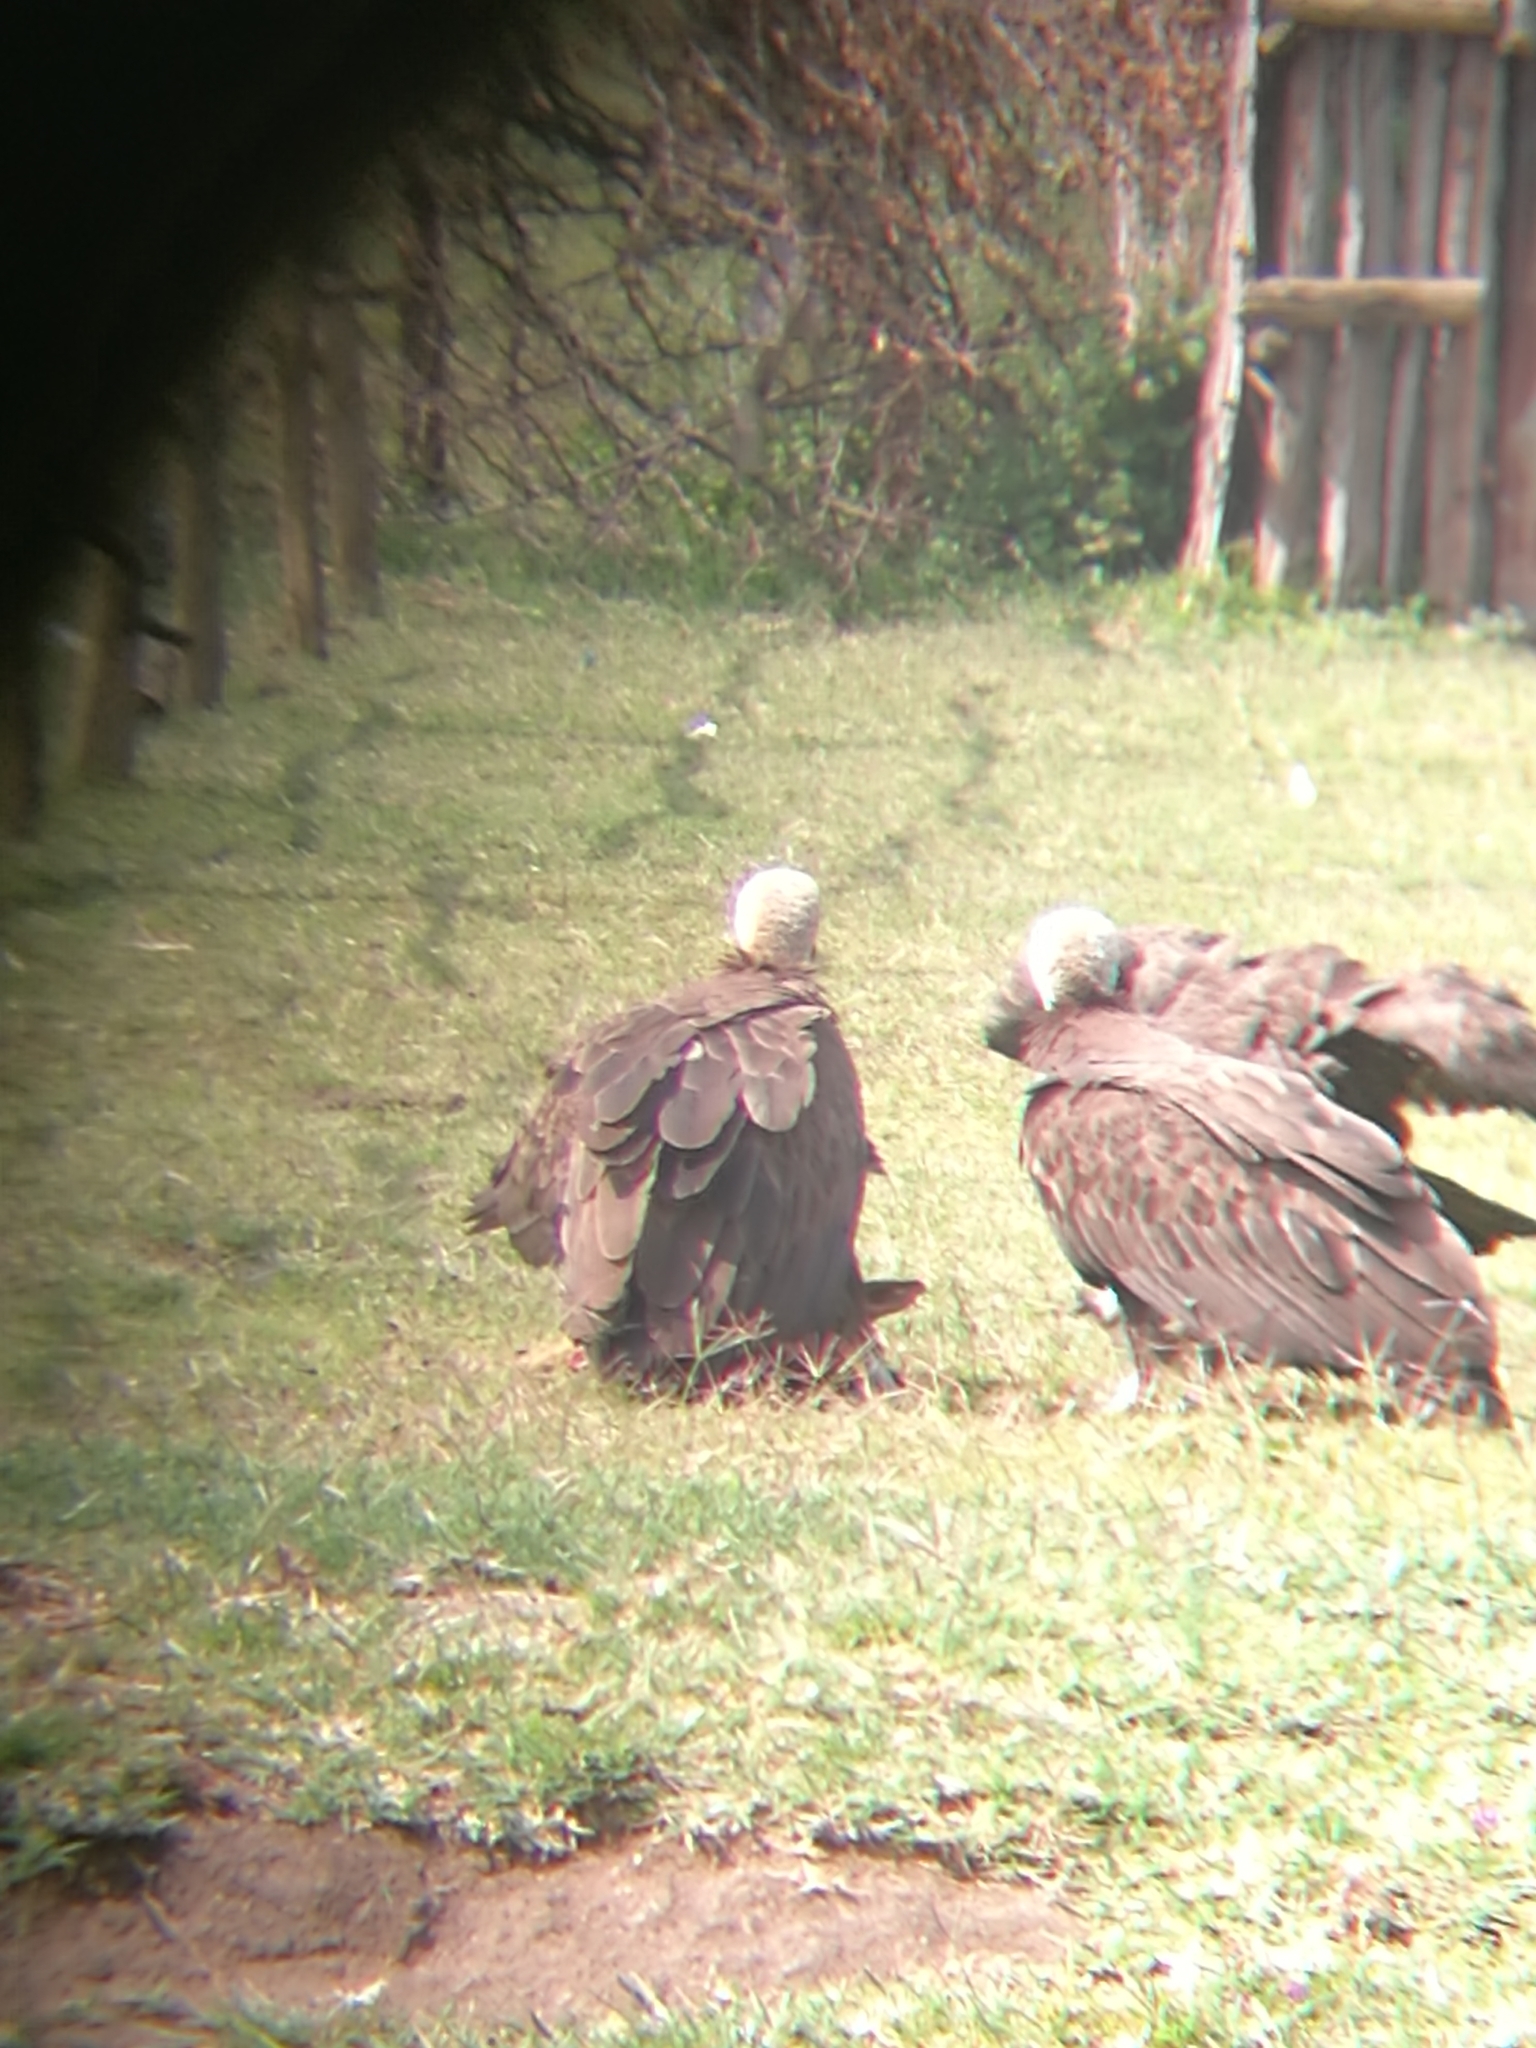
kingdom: Animalia
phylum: Chordata
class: Aves
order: Accipitriformes
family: Accipitridae
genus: Necrosyrtes
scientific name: Necrosyrtes monachus
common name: Hooded vulture
